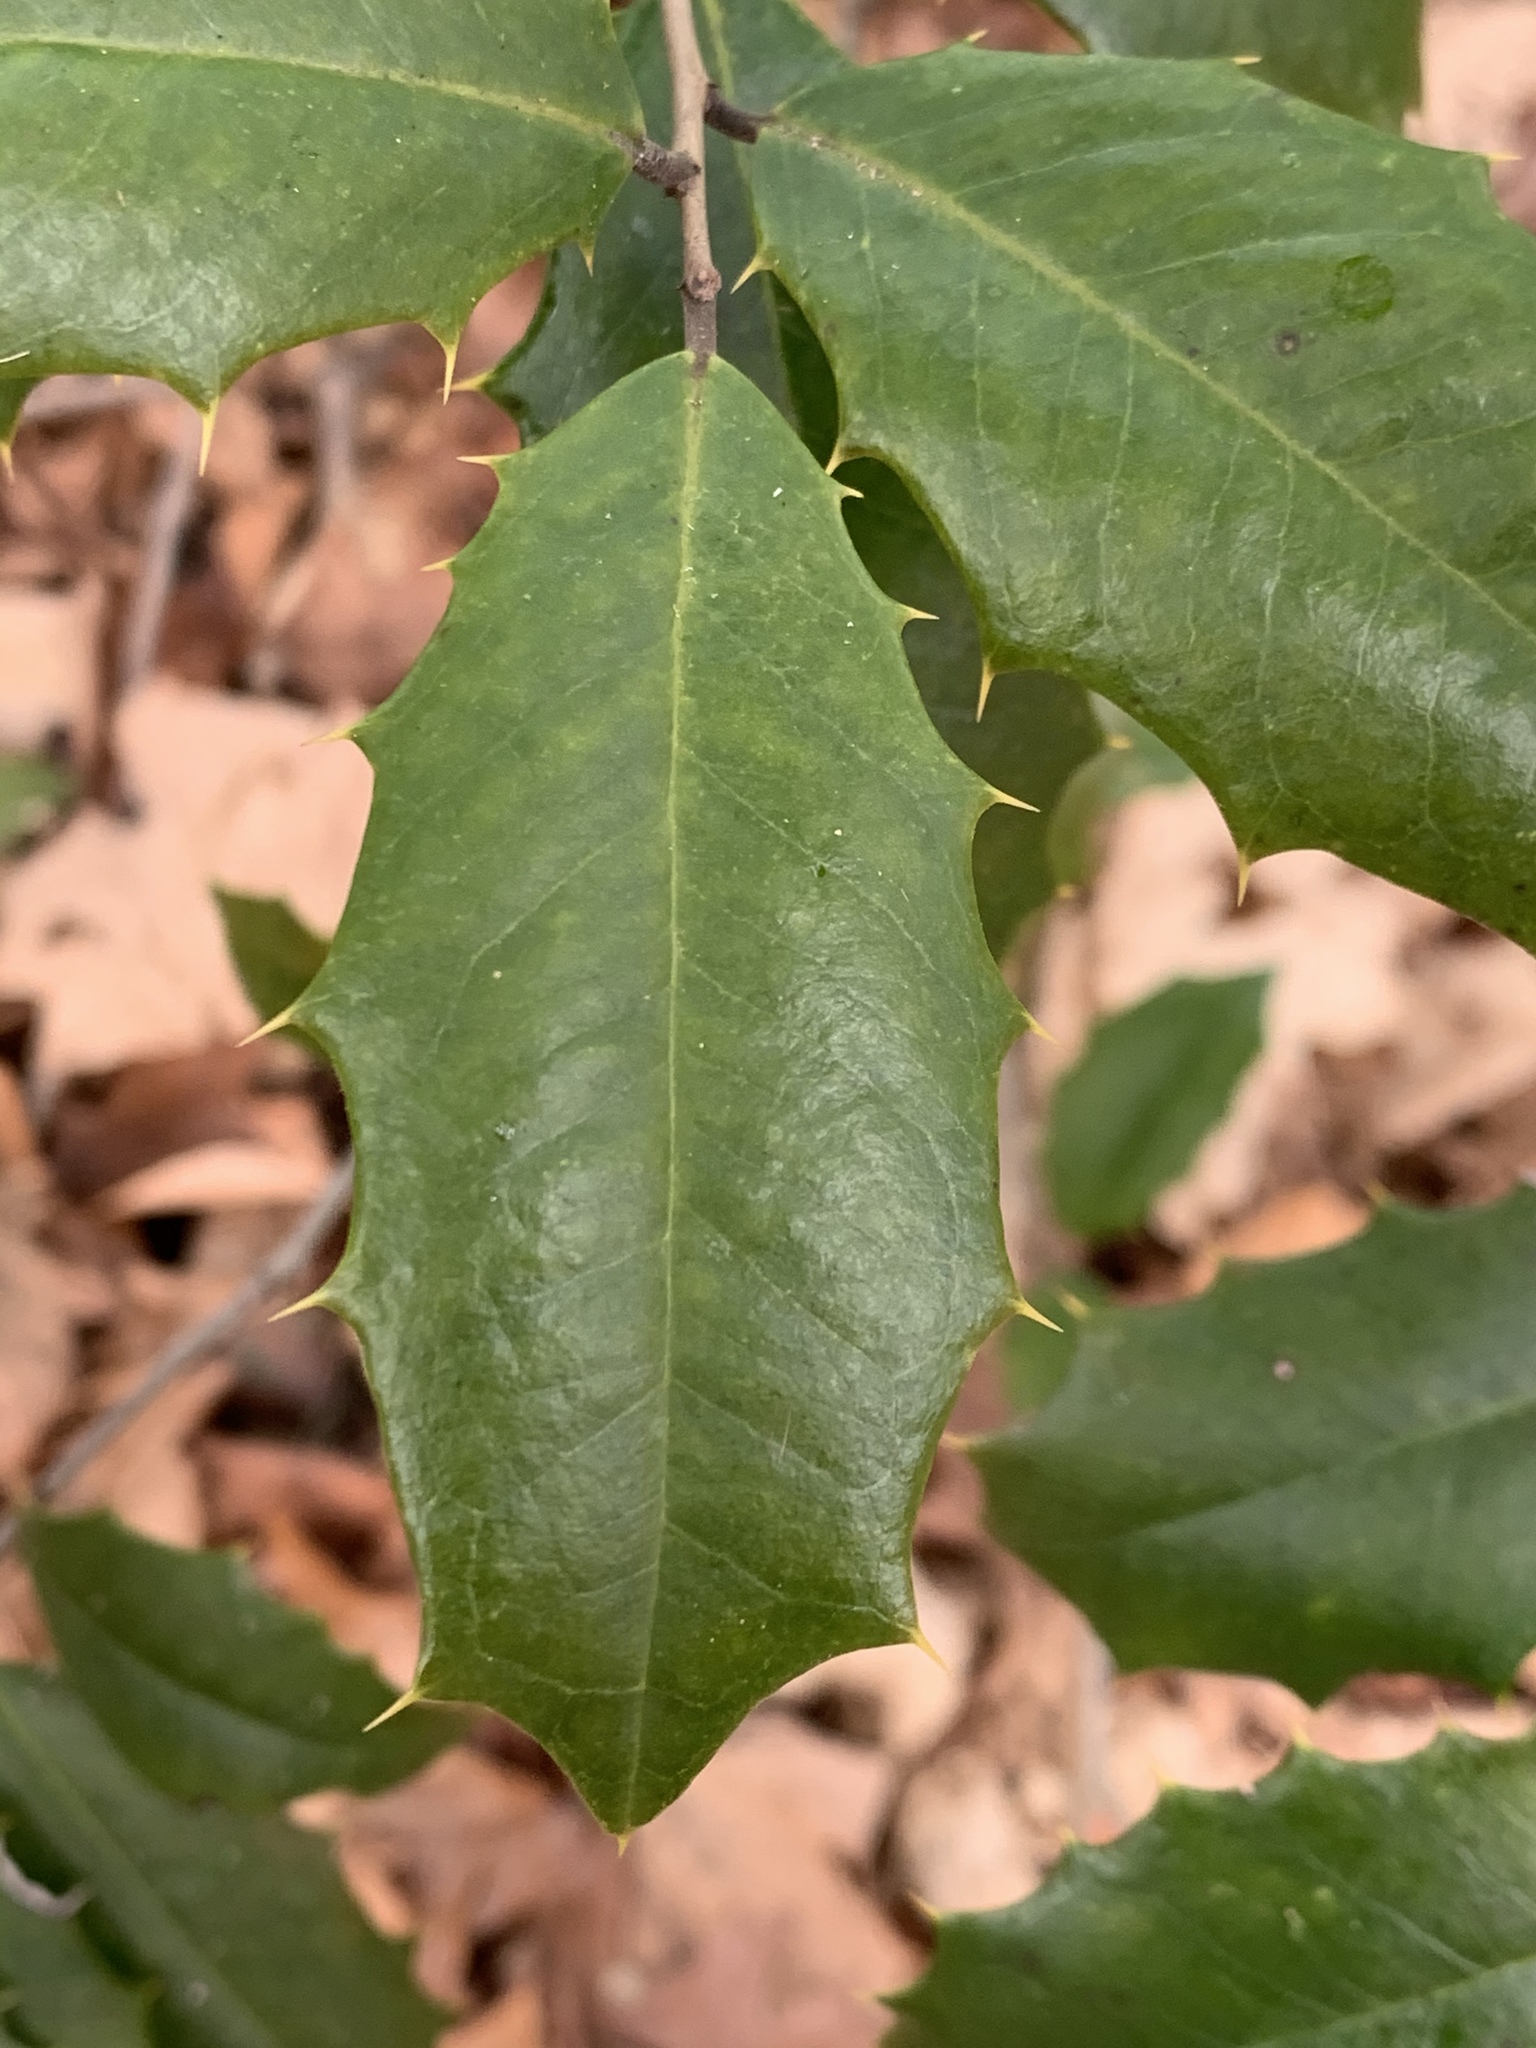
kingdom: Plantae
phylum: Tracheophyta
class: Magnoliopsida
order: Aquifoliales
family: Aquifoliaceae
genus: Ilex
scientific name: Ilex opaca
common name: American holly
